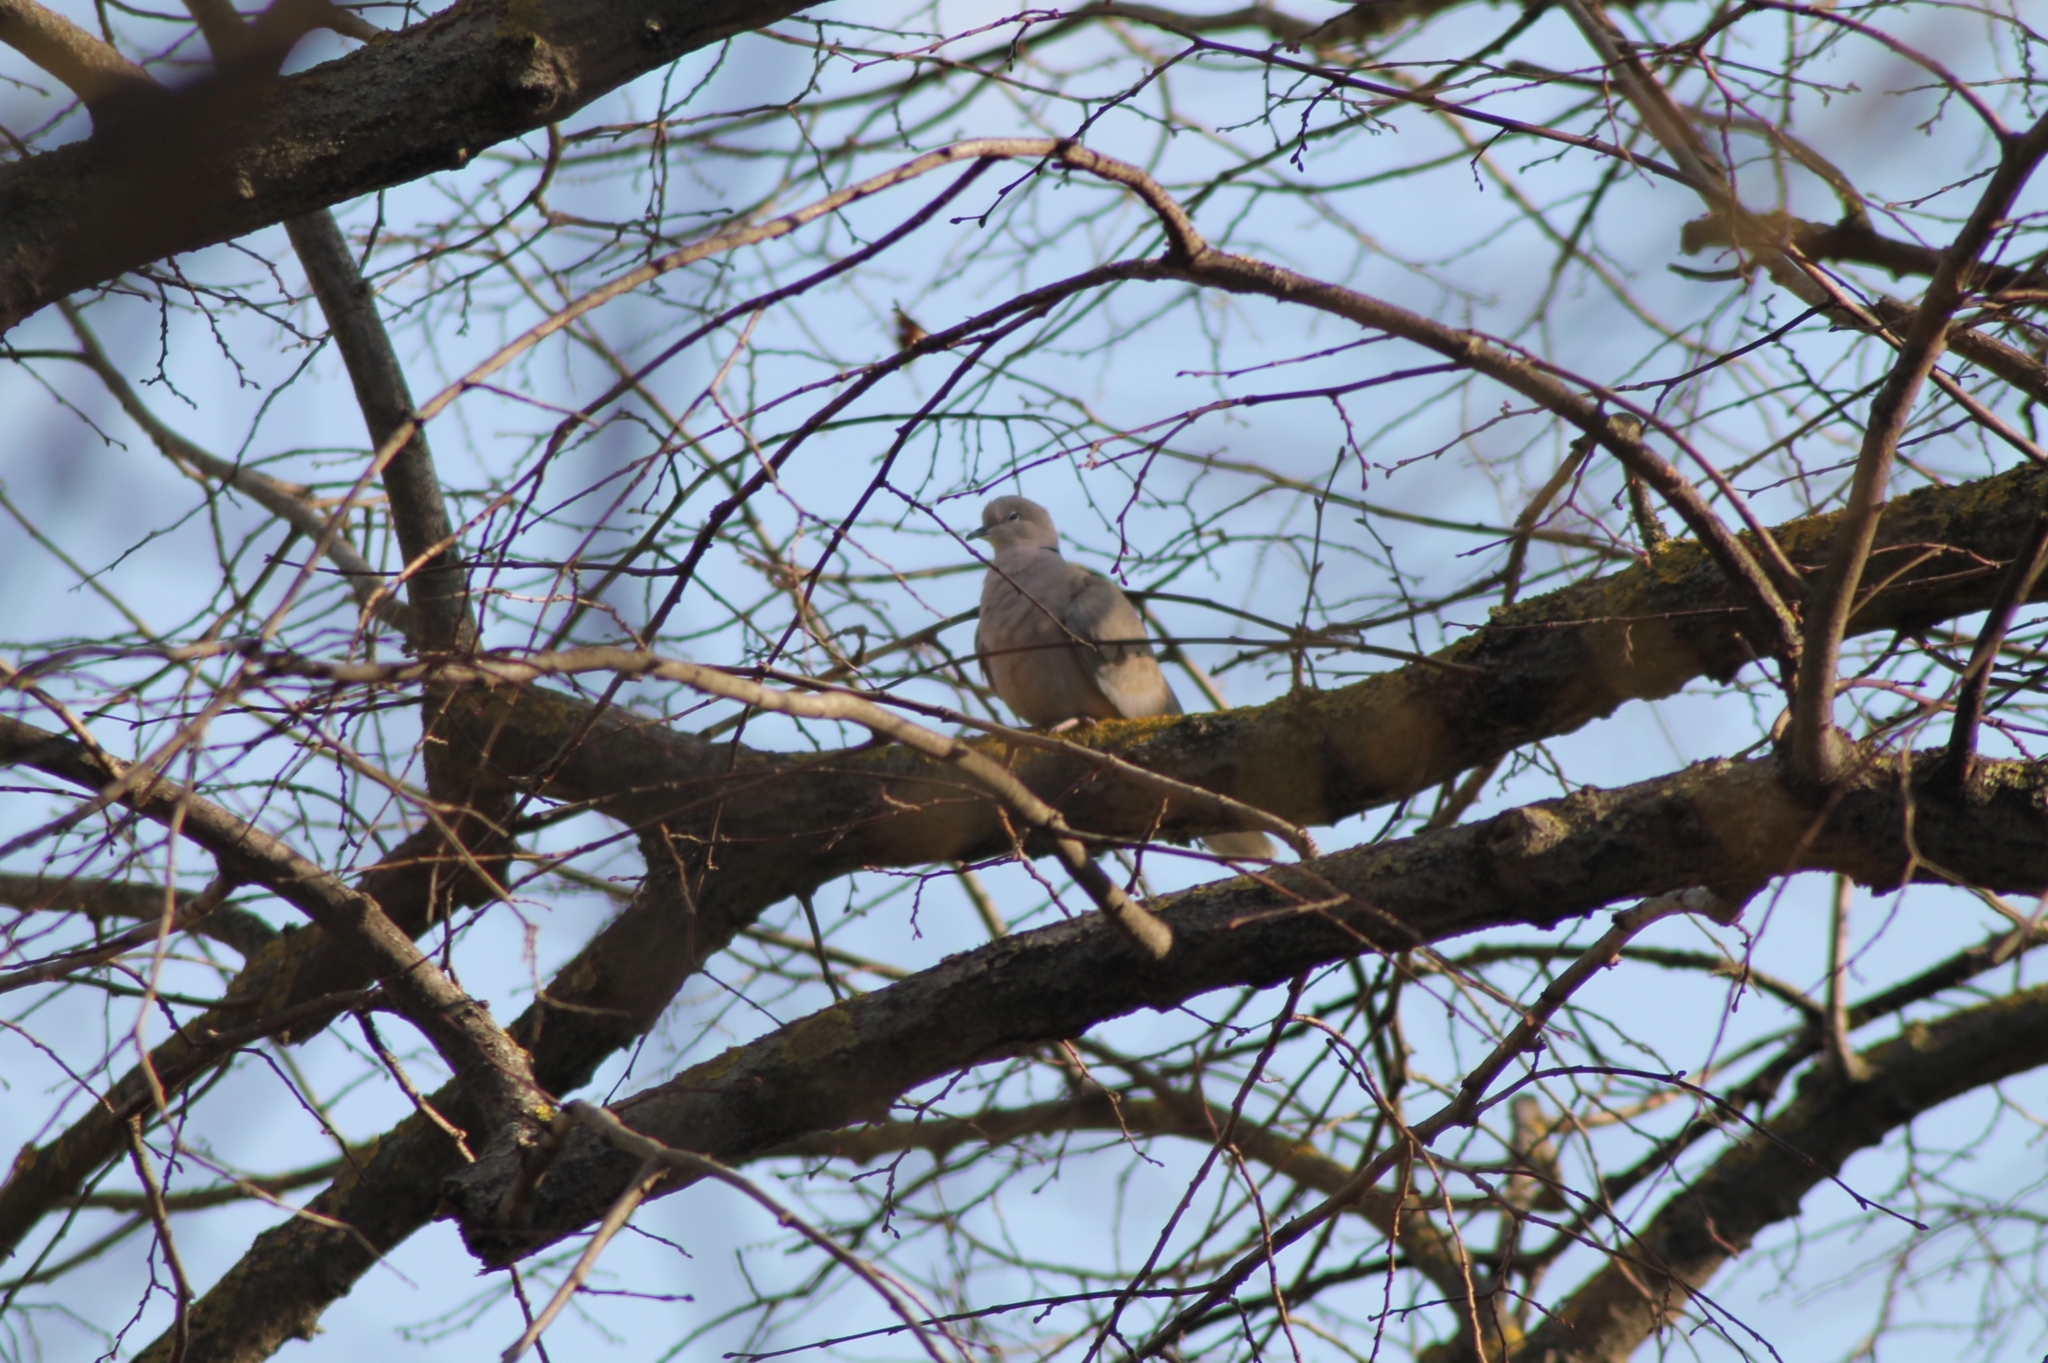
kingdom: Animalia
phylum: Chordata
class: Aves
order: Columbiformes
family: Columbidae
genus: Streptopelia
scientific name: Streptopelia decaocto
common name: Eurasian collared dove
